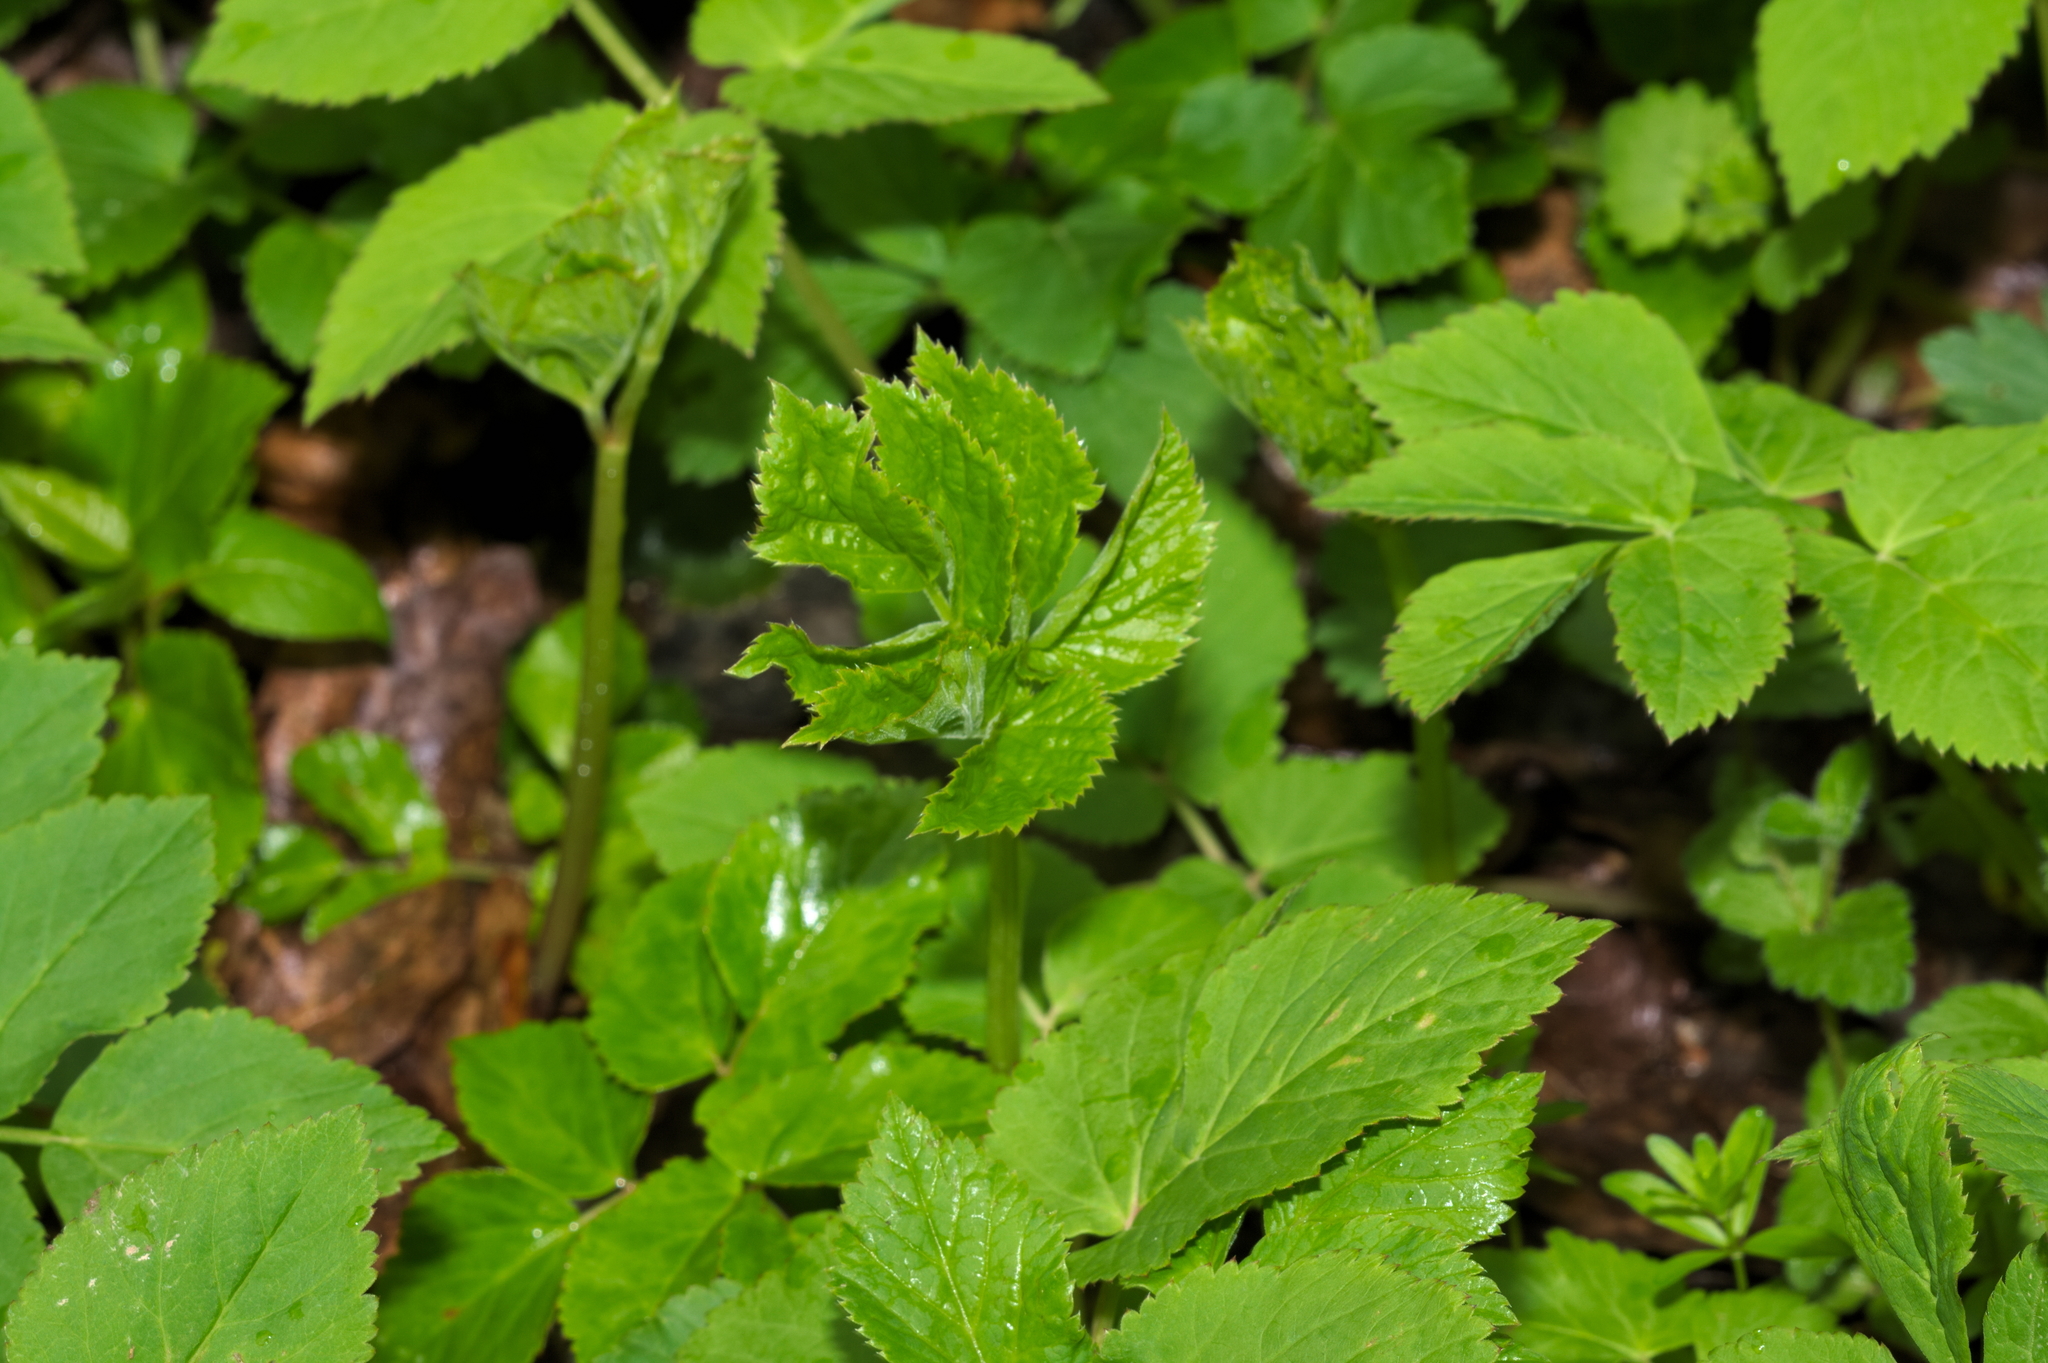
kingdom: Plantae
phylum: Tracheophyta
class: Magnoliopsida
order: Apiales
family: Apiaceae
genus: Aegopodium
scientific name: Aegopodium podagraria
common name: Ground-elder
